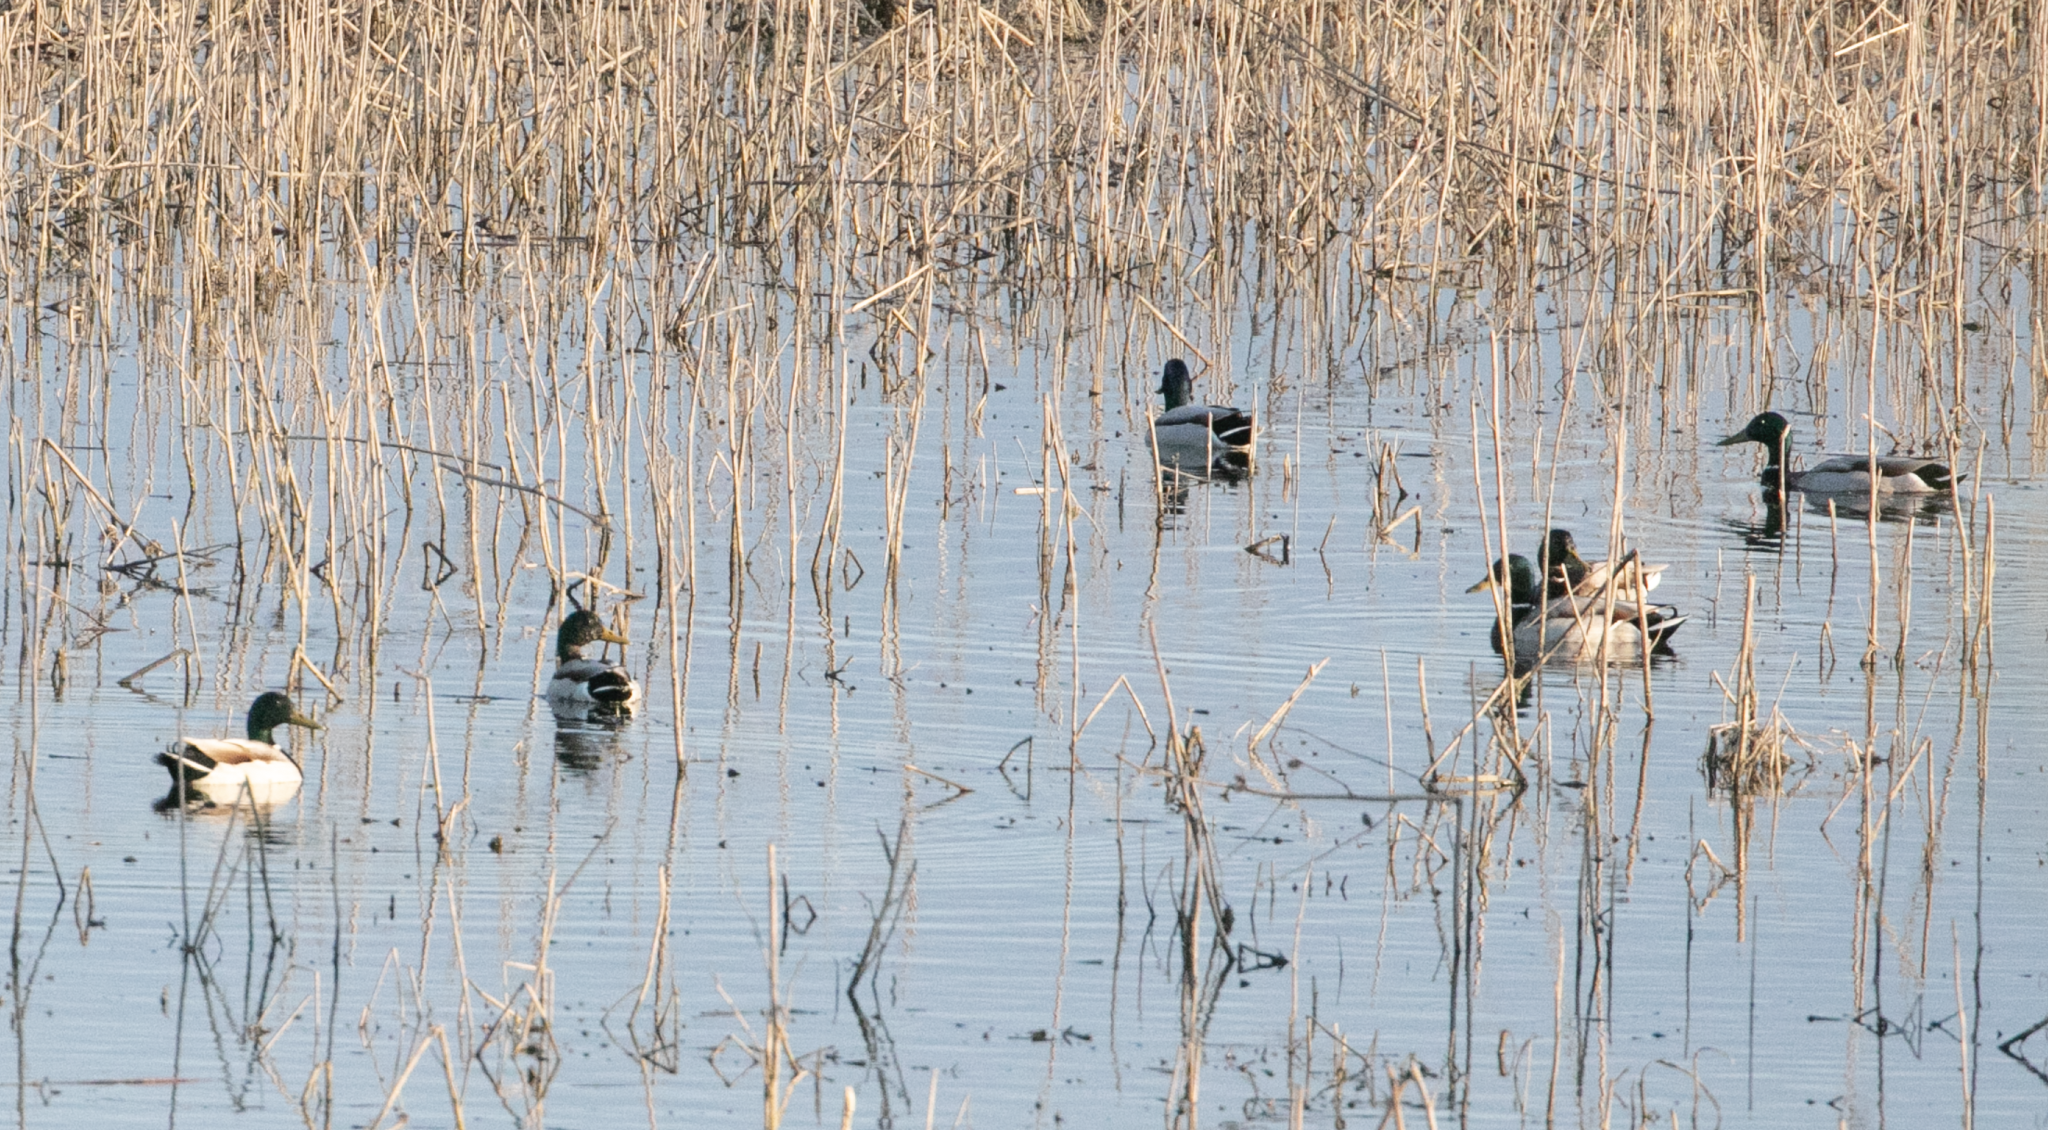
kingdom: Animalia
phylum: Chordata
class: Aves
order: Anseriformes
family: Anatidae
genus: Anas
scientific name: Anas platyrhynchos
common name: Mallard
